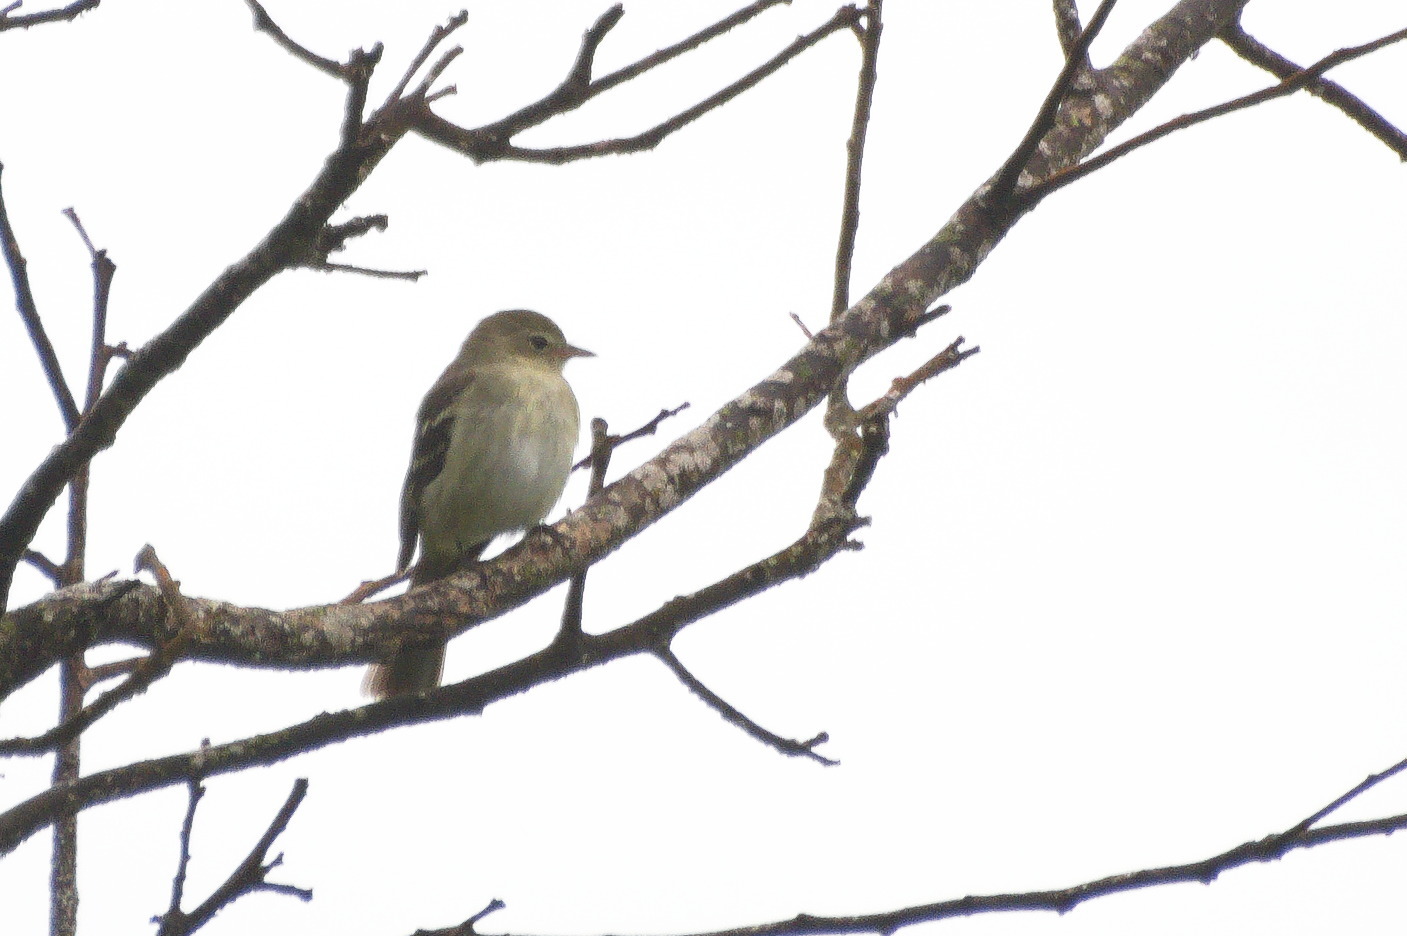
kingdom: Animalia
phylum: Chordata
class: Aves
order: Passeriformes
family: Tyrannidae
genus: Elaenia
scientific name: Elaenia frantzii
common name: Mountain elaenia
